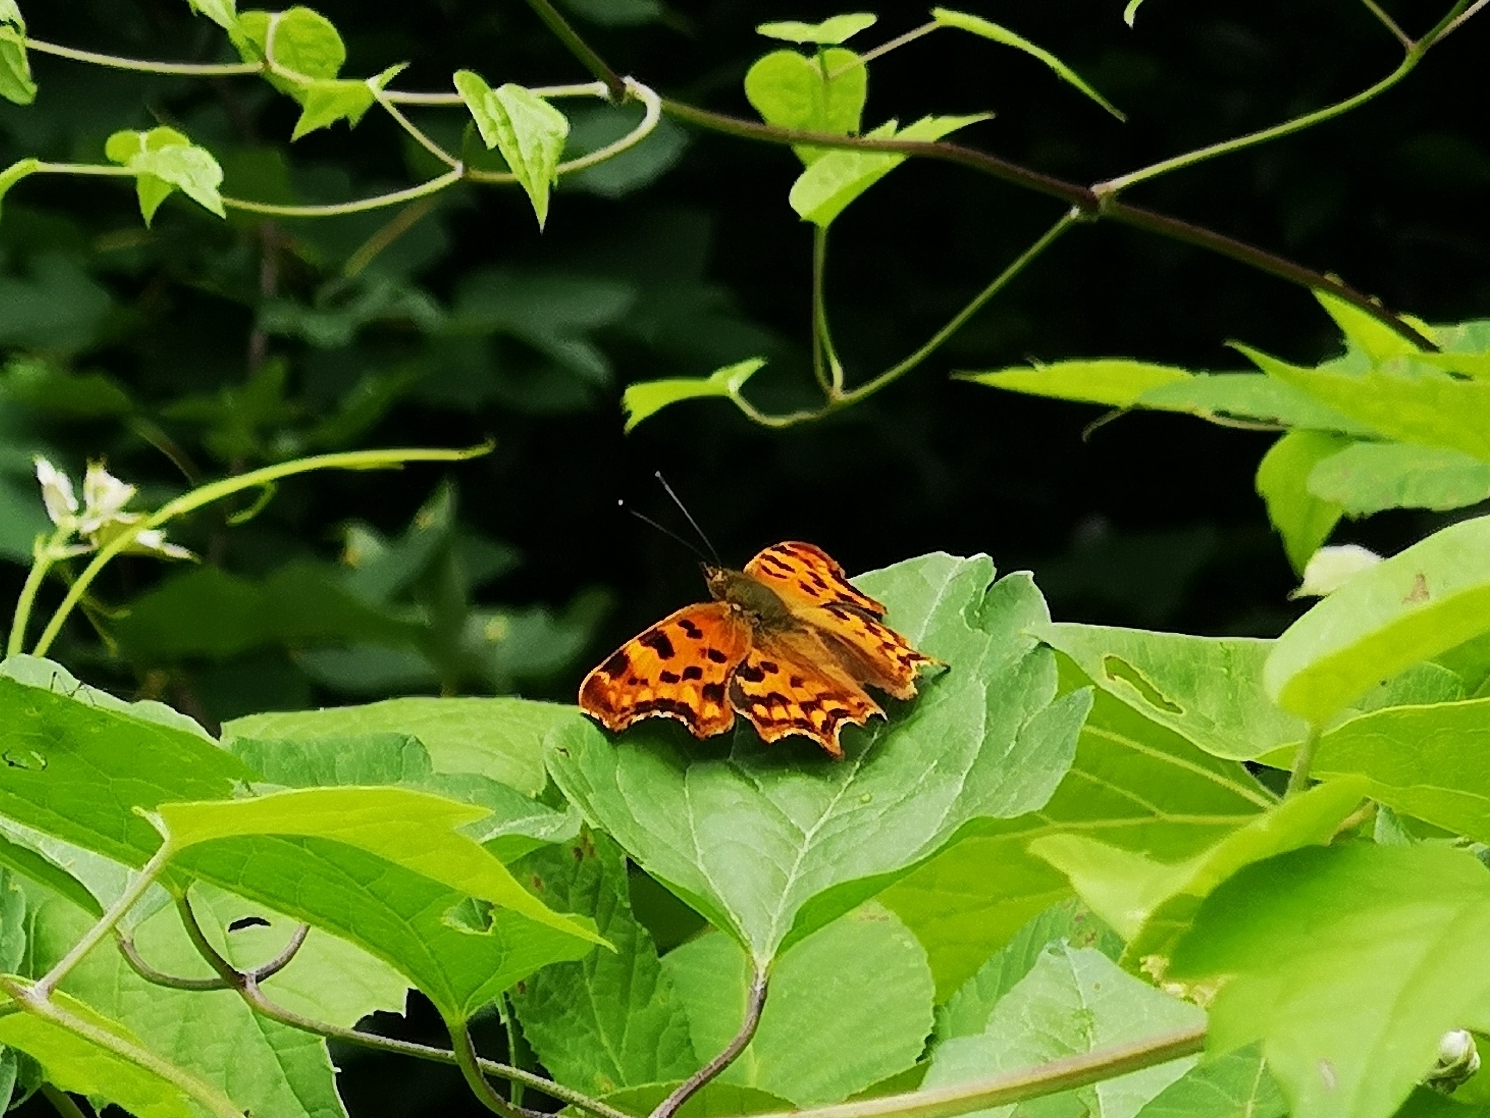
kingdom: Animalia
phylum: Arthropoda
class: Insecta
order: Lepidoptera
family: Nymphalidae
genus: Polygonia
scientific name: Polygonia c-album
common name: Comma
